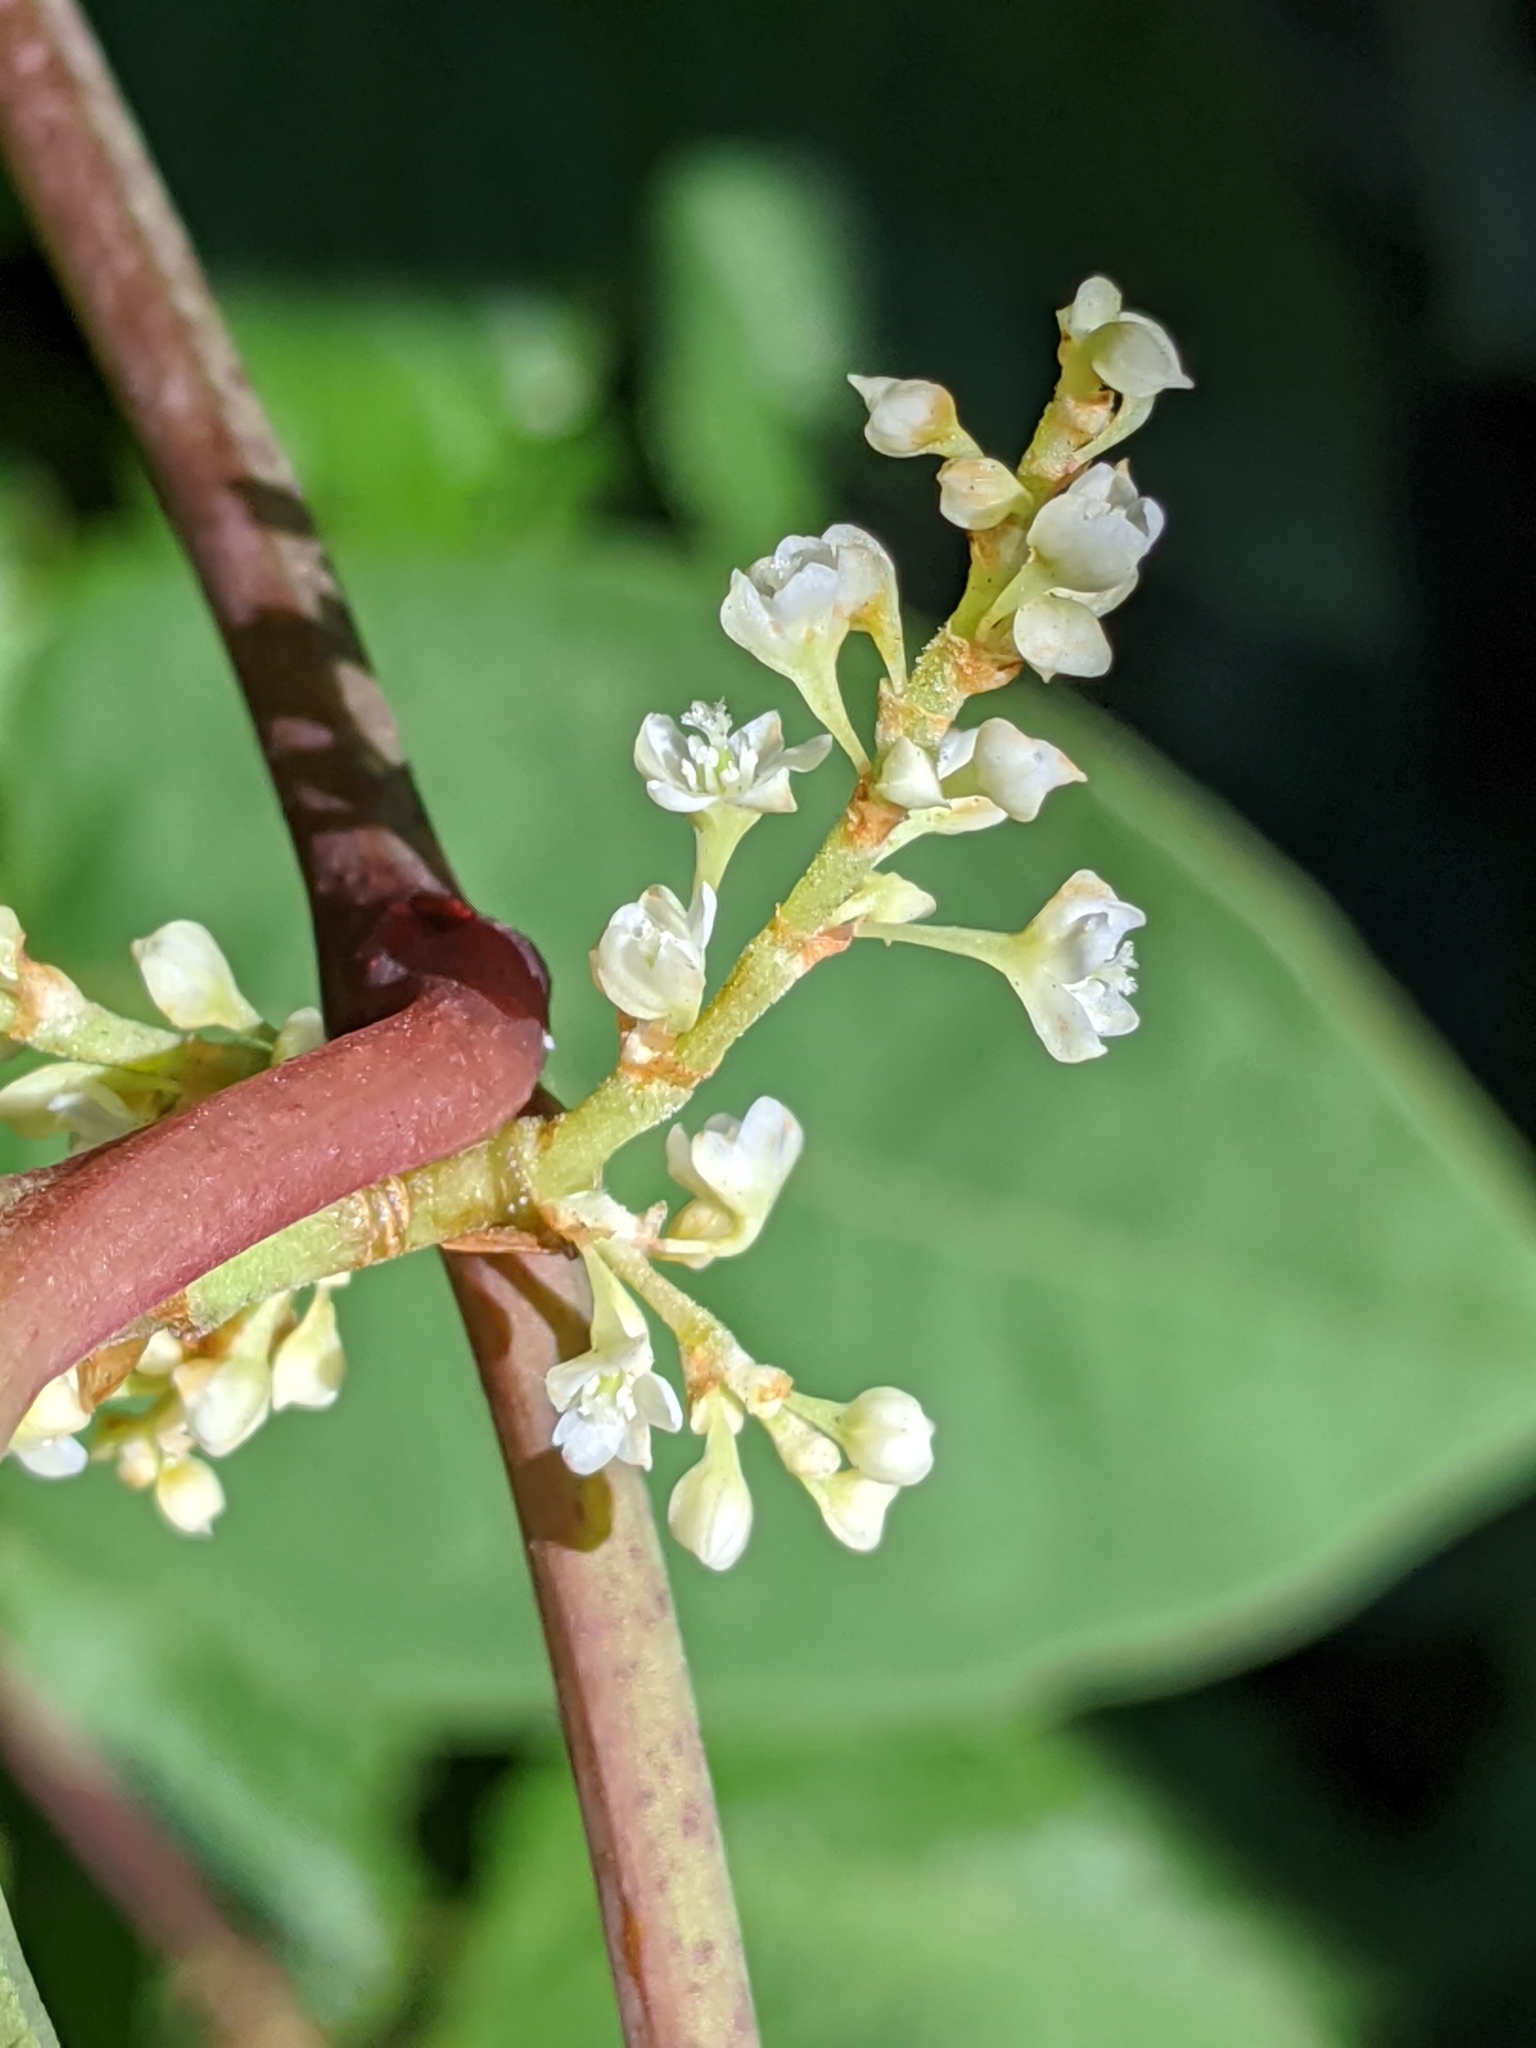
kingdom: Plantae
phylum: Tracheophyta
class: Magnoliopsida
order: Caryophyllales
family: Polygonaceae
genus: Reynoutria
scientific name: Reynoutria japonica
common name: Japanese knotweed
